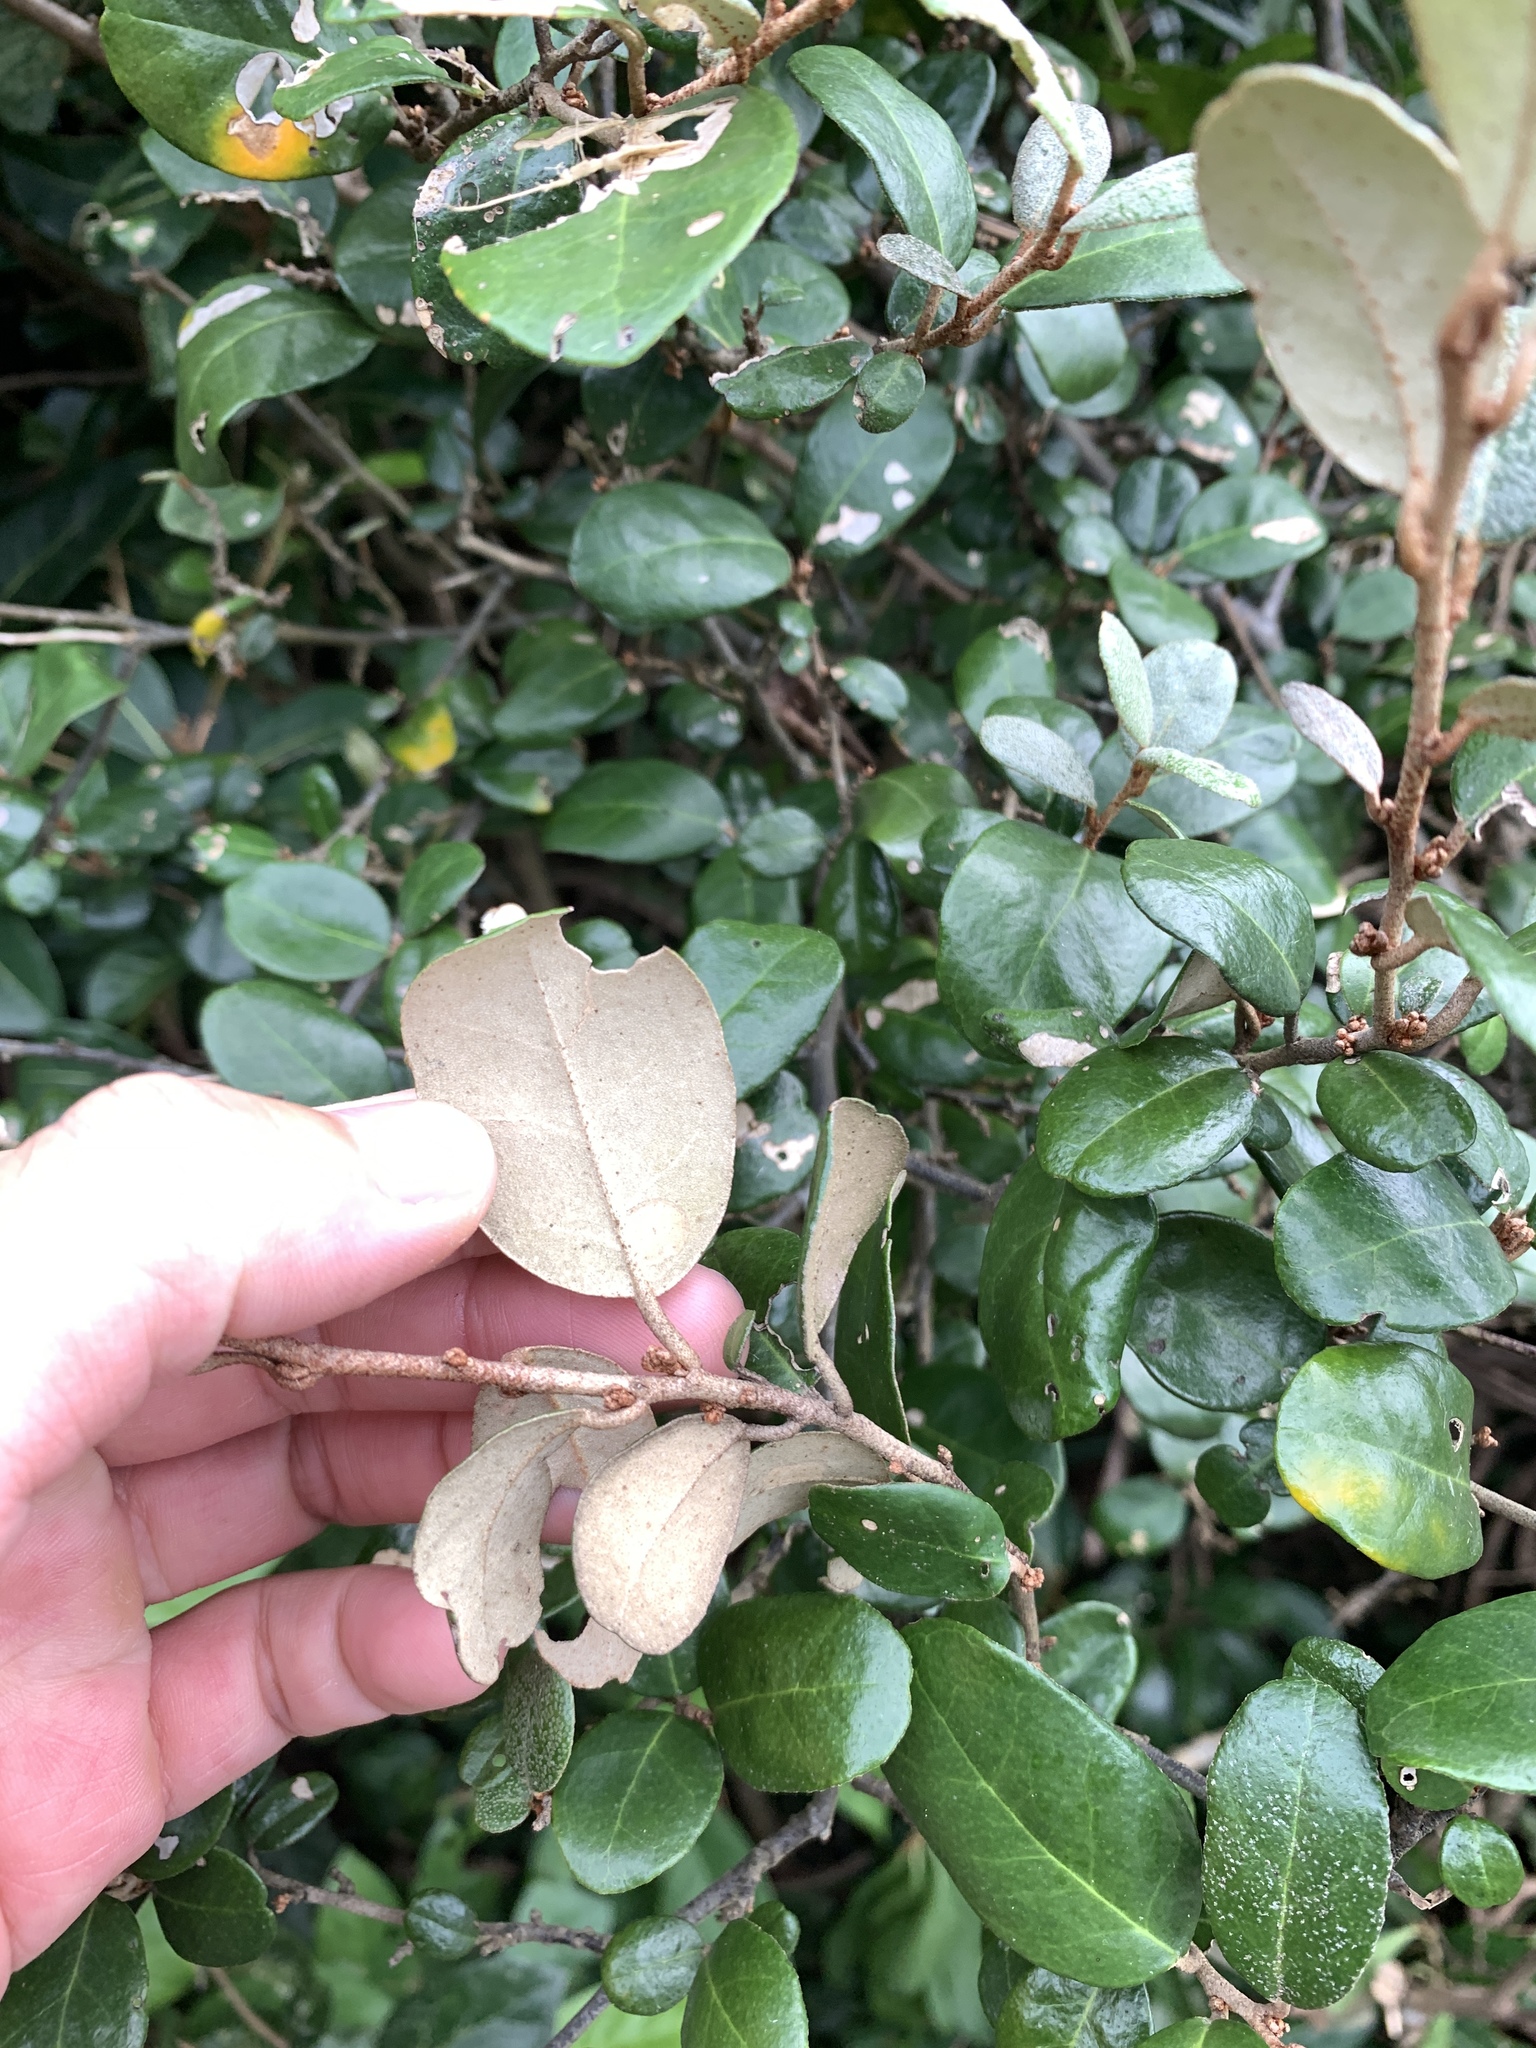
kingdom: Plantae
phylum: Tracheophyta
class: Magnoliopsida
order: Rosales
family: Elaeagnaceae
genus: Elaeagnus
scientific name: Elaeagnus formosana
